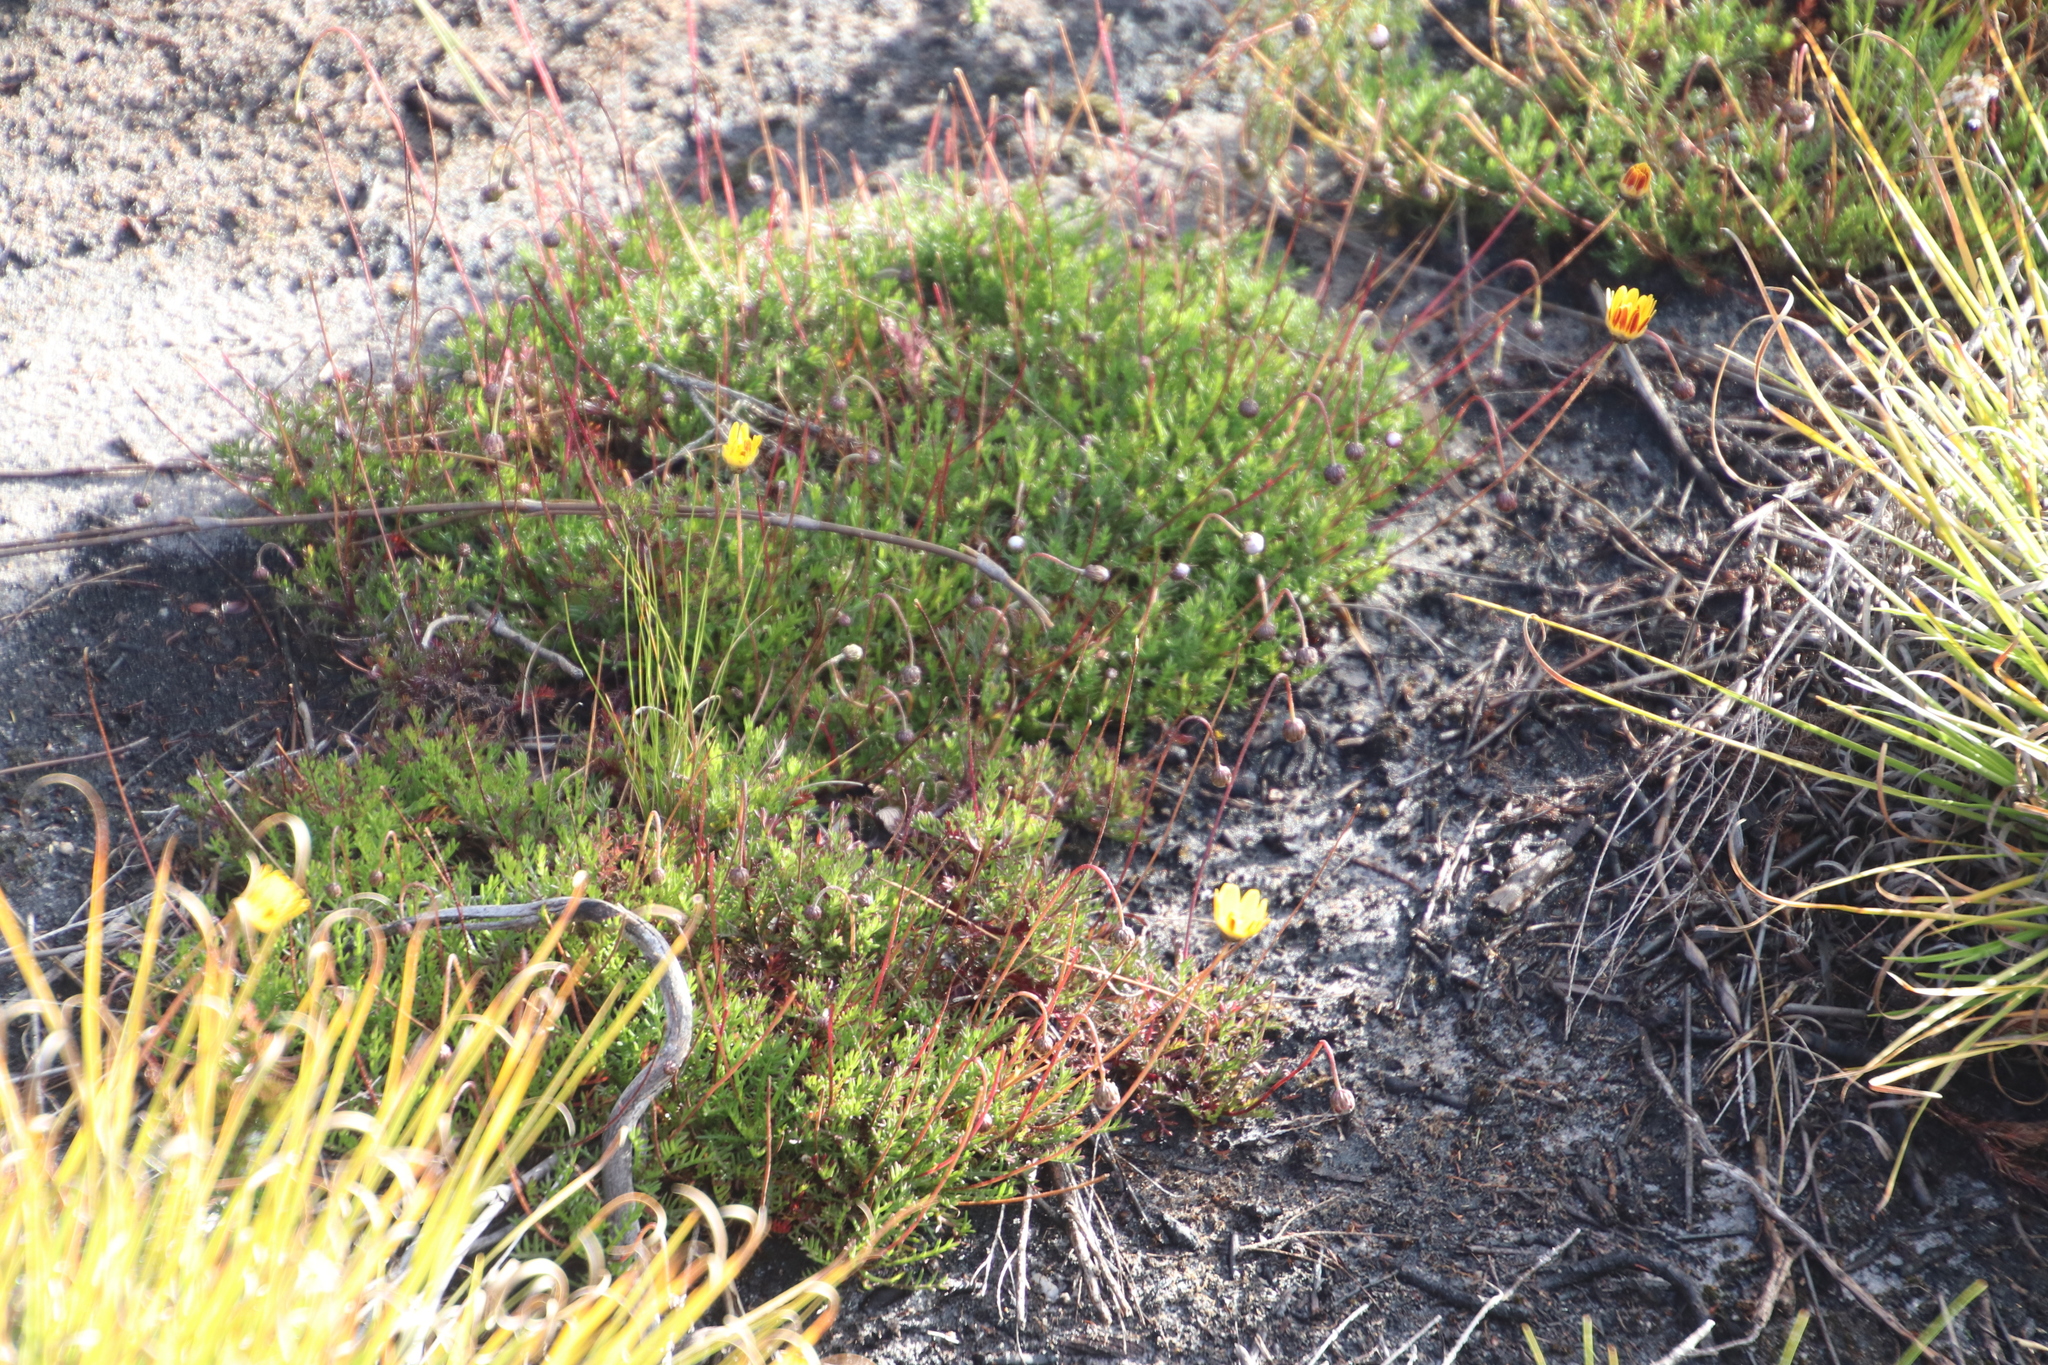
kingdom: Plantae
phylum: Tracheophyta
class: Magnoliopsida
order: Asterales
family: Asteraceae
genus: Ursinia
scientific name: Ursinia nudicaulis
